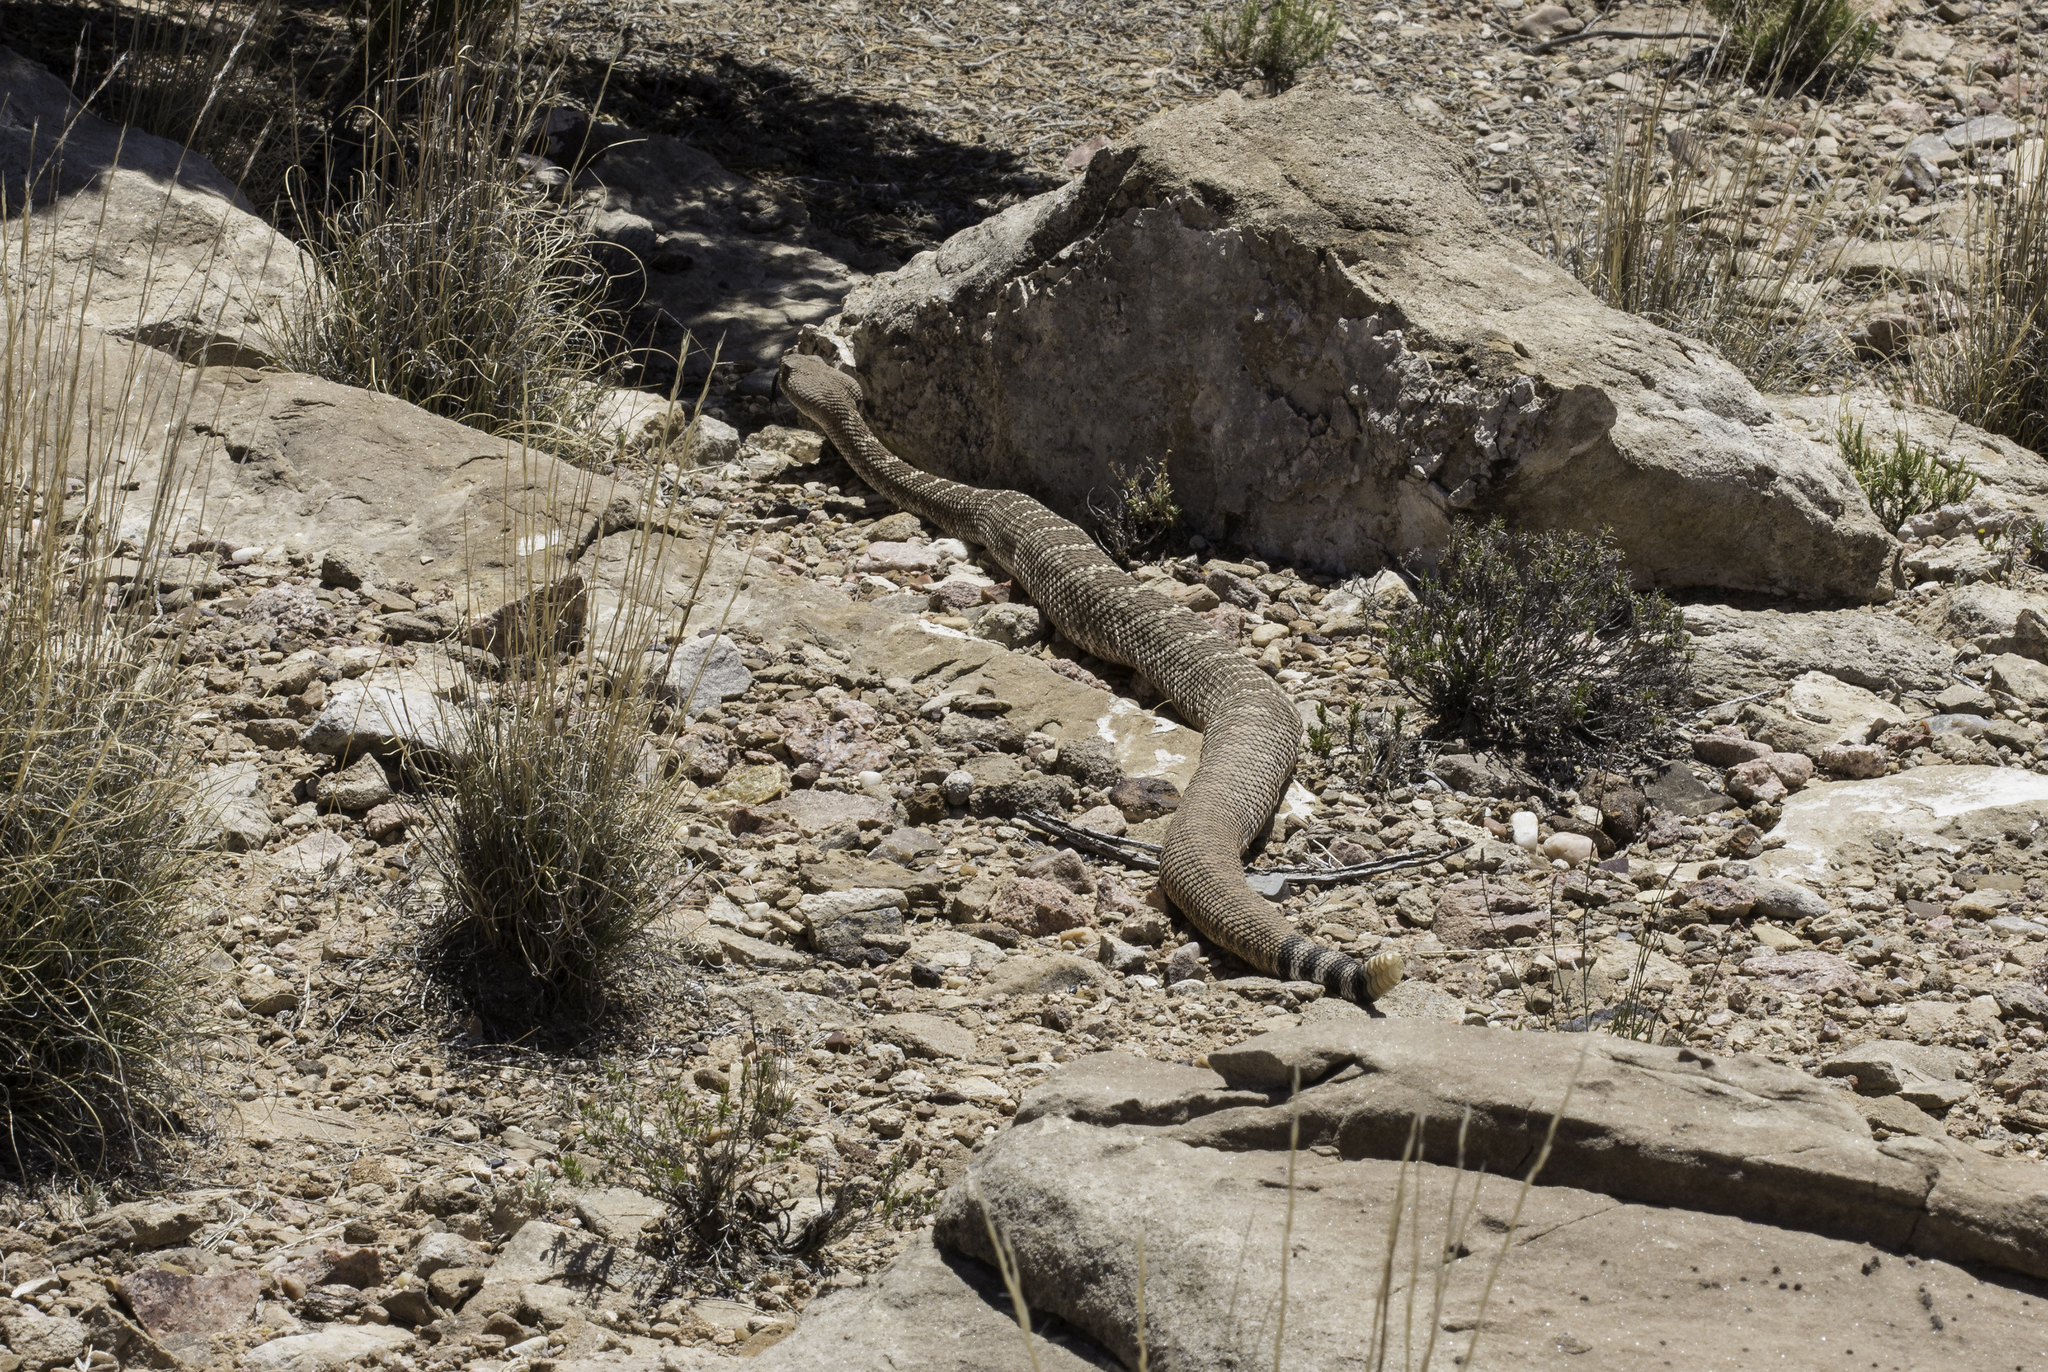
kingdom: Animalia
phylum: Chordata
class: Squamata
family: Viperidae
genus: Crotalus
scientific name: Crotalus atrox
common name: Western diamond-backed rattlesnake
